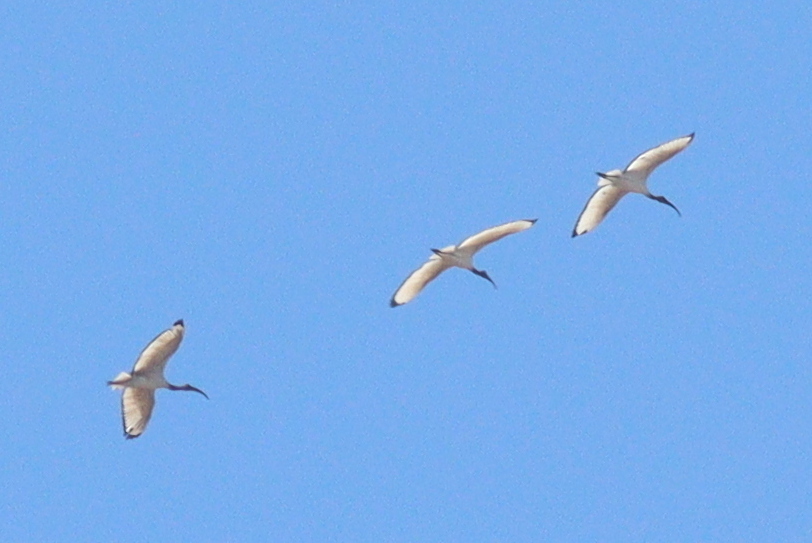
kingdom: Animalia
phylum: Chordata
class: Aves
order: Pelecaniformes
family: Threskiornithidae
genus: Threskiornis
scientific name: Threskiornis aethiopicus
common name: Sacred ibis
